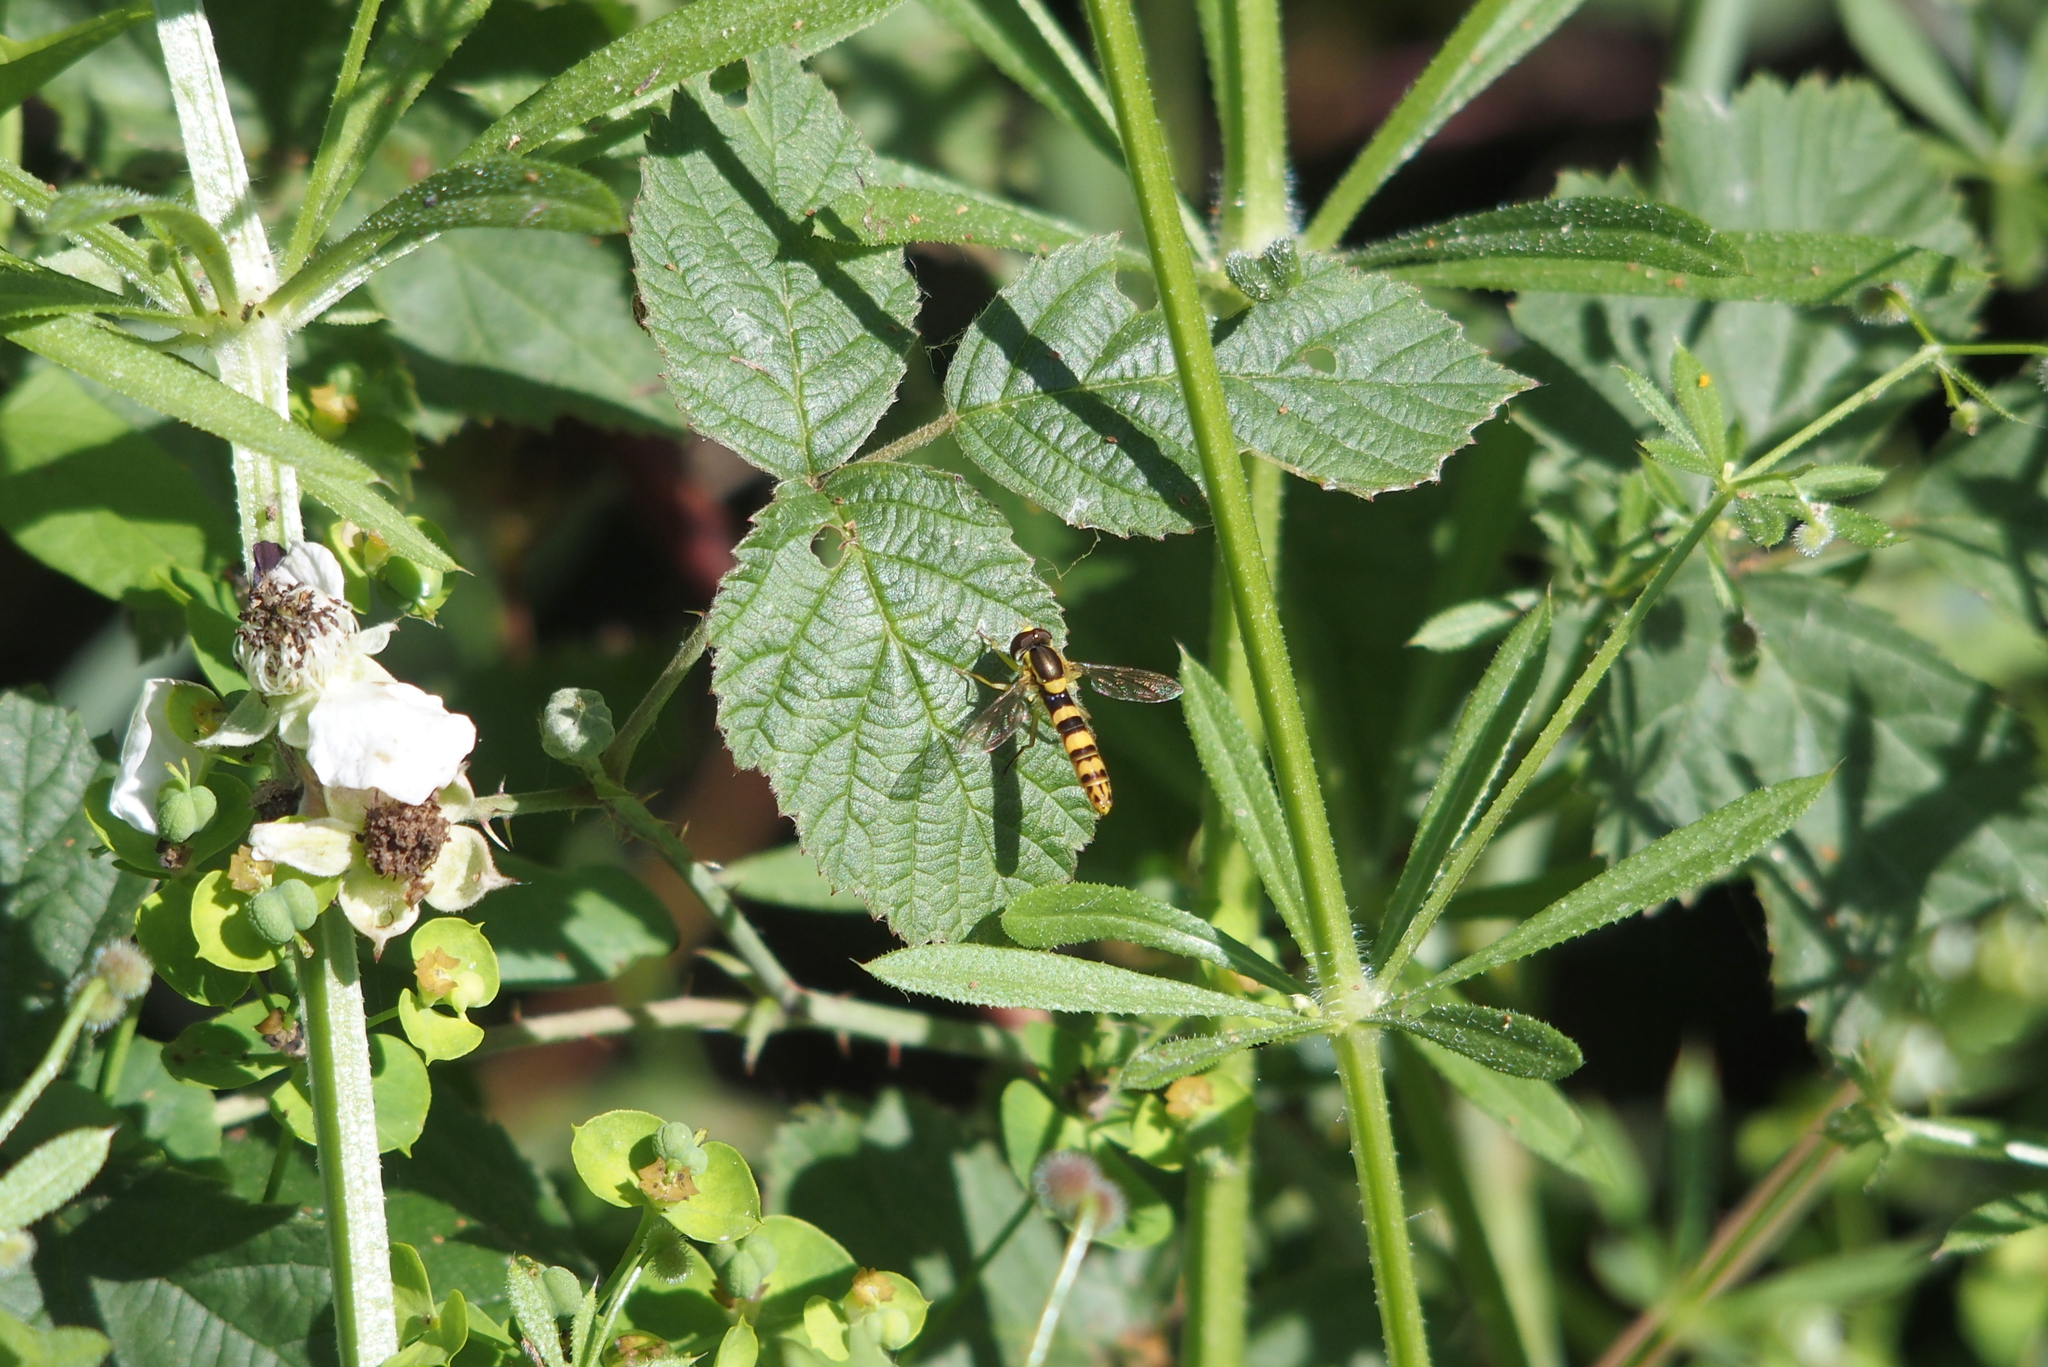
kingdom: Animalia
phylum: Arthropoda
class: Insecta
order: Diptera
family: Syrphidae
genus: Sphaerophoria
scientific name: Sphaerophoria scripta
